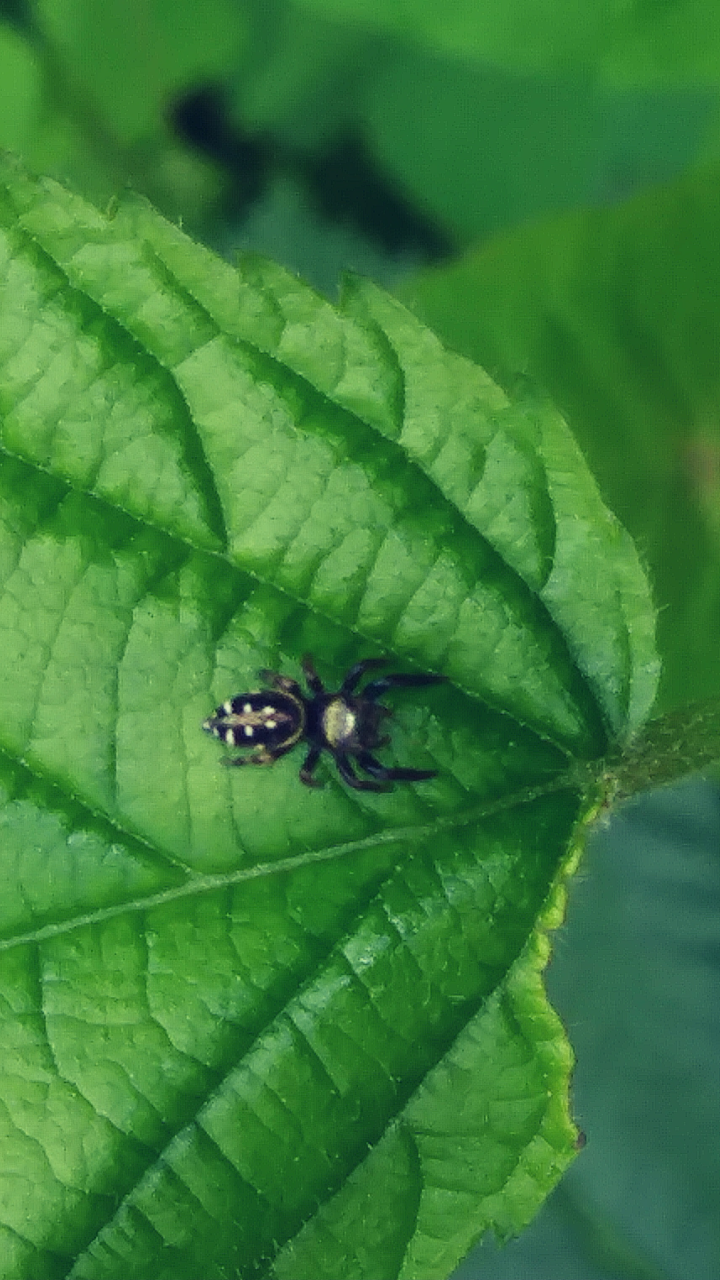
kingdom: Animalia
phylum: Arthropoda
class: Arachnida
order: Araneae
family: Salticidae
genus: Paraphidippus
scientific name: Paraphidippus aurantius
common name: Jumping spiders
